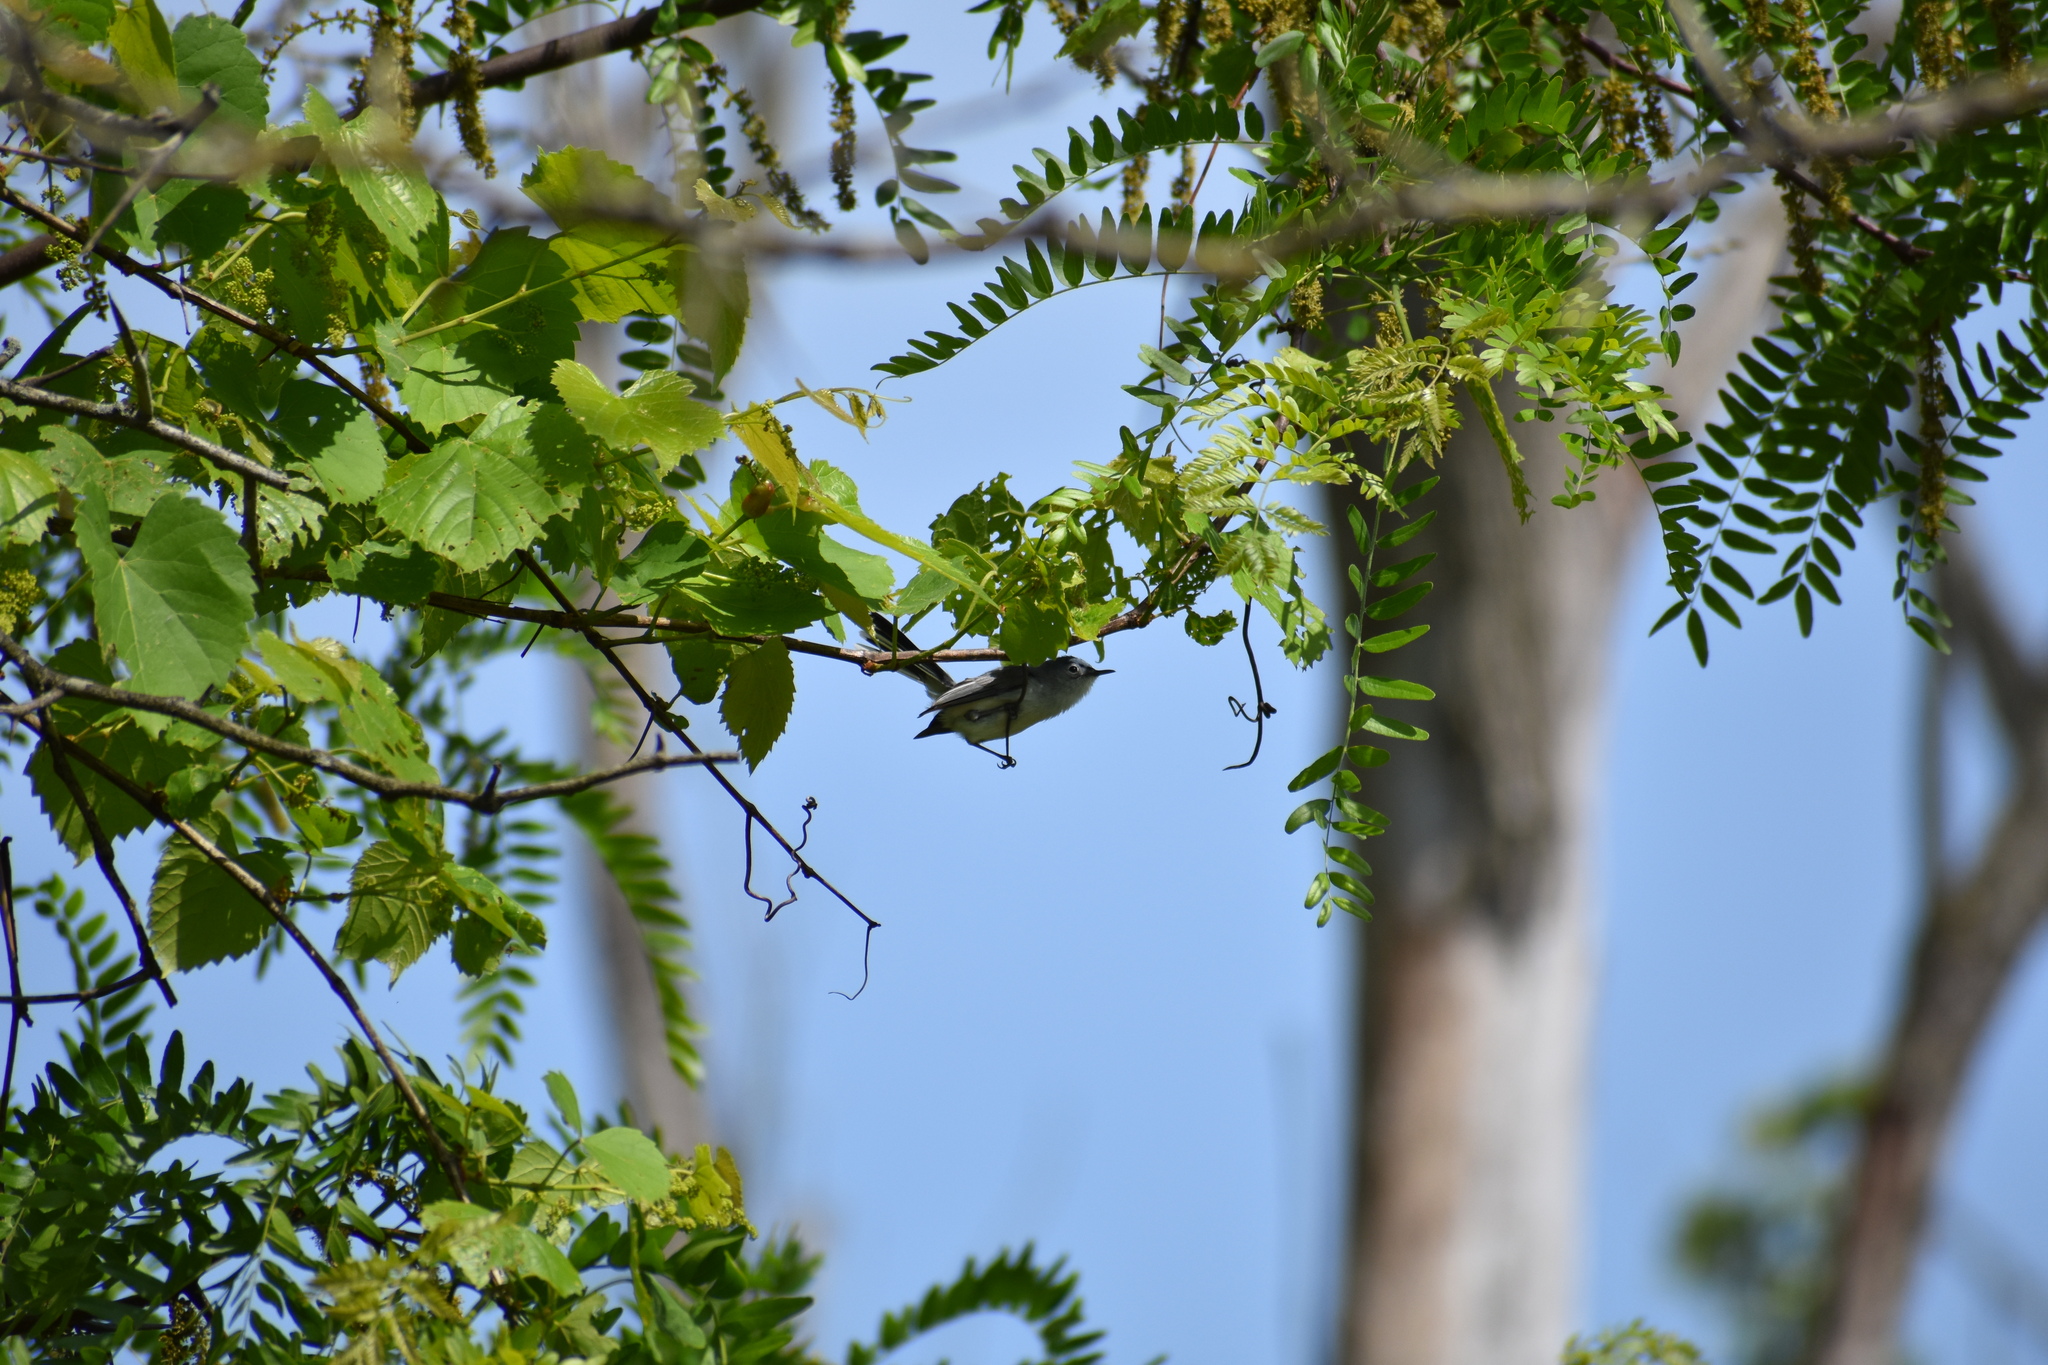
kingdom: Animalia
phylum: Chordata
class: Aves
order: Passeriformes
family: Polioptilidae
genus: Polioptila
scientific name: Polioptila caerulea
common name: Blue-gray gnatcatcher
